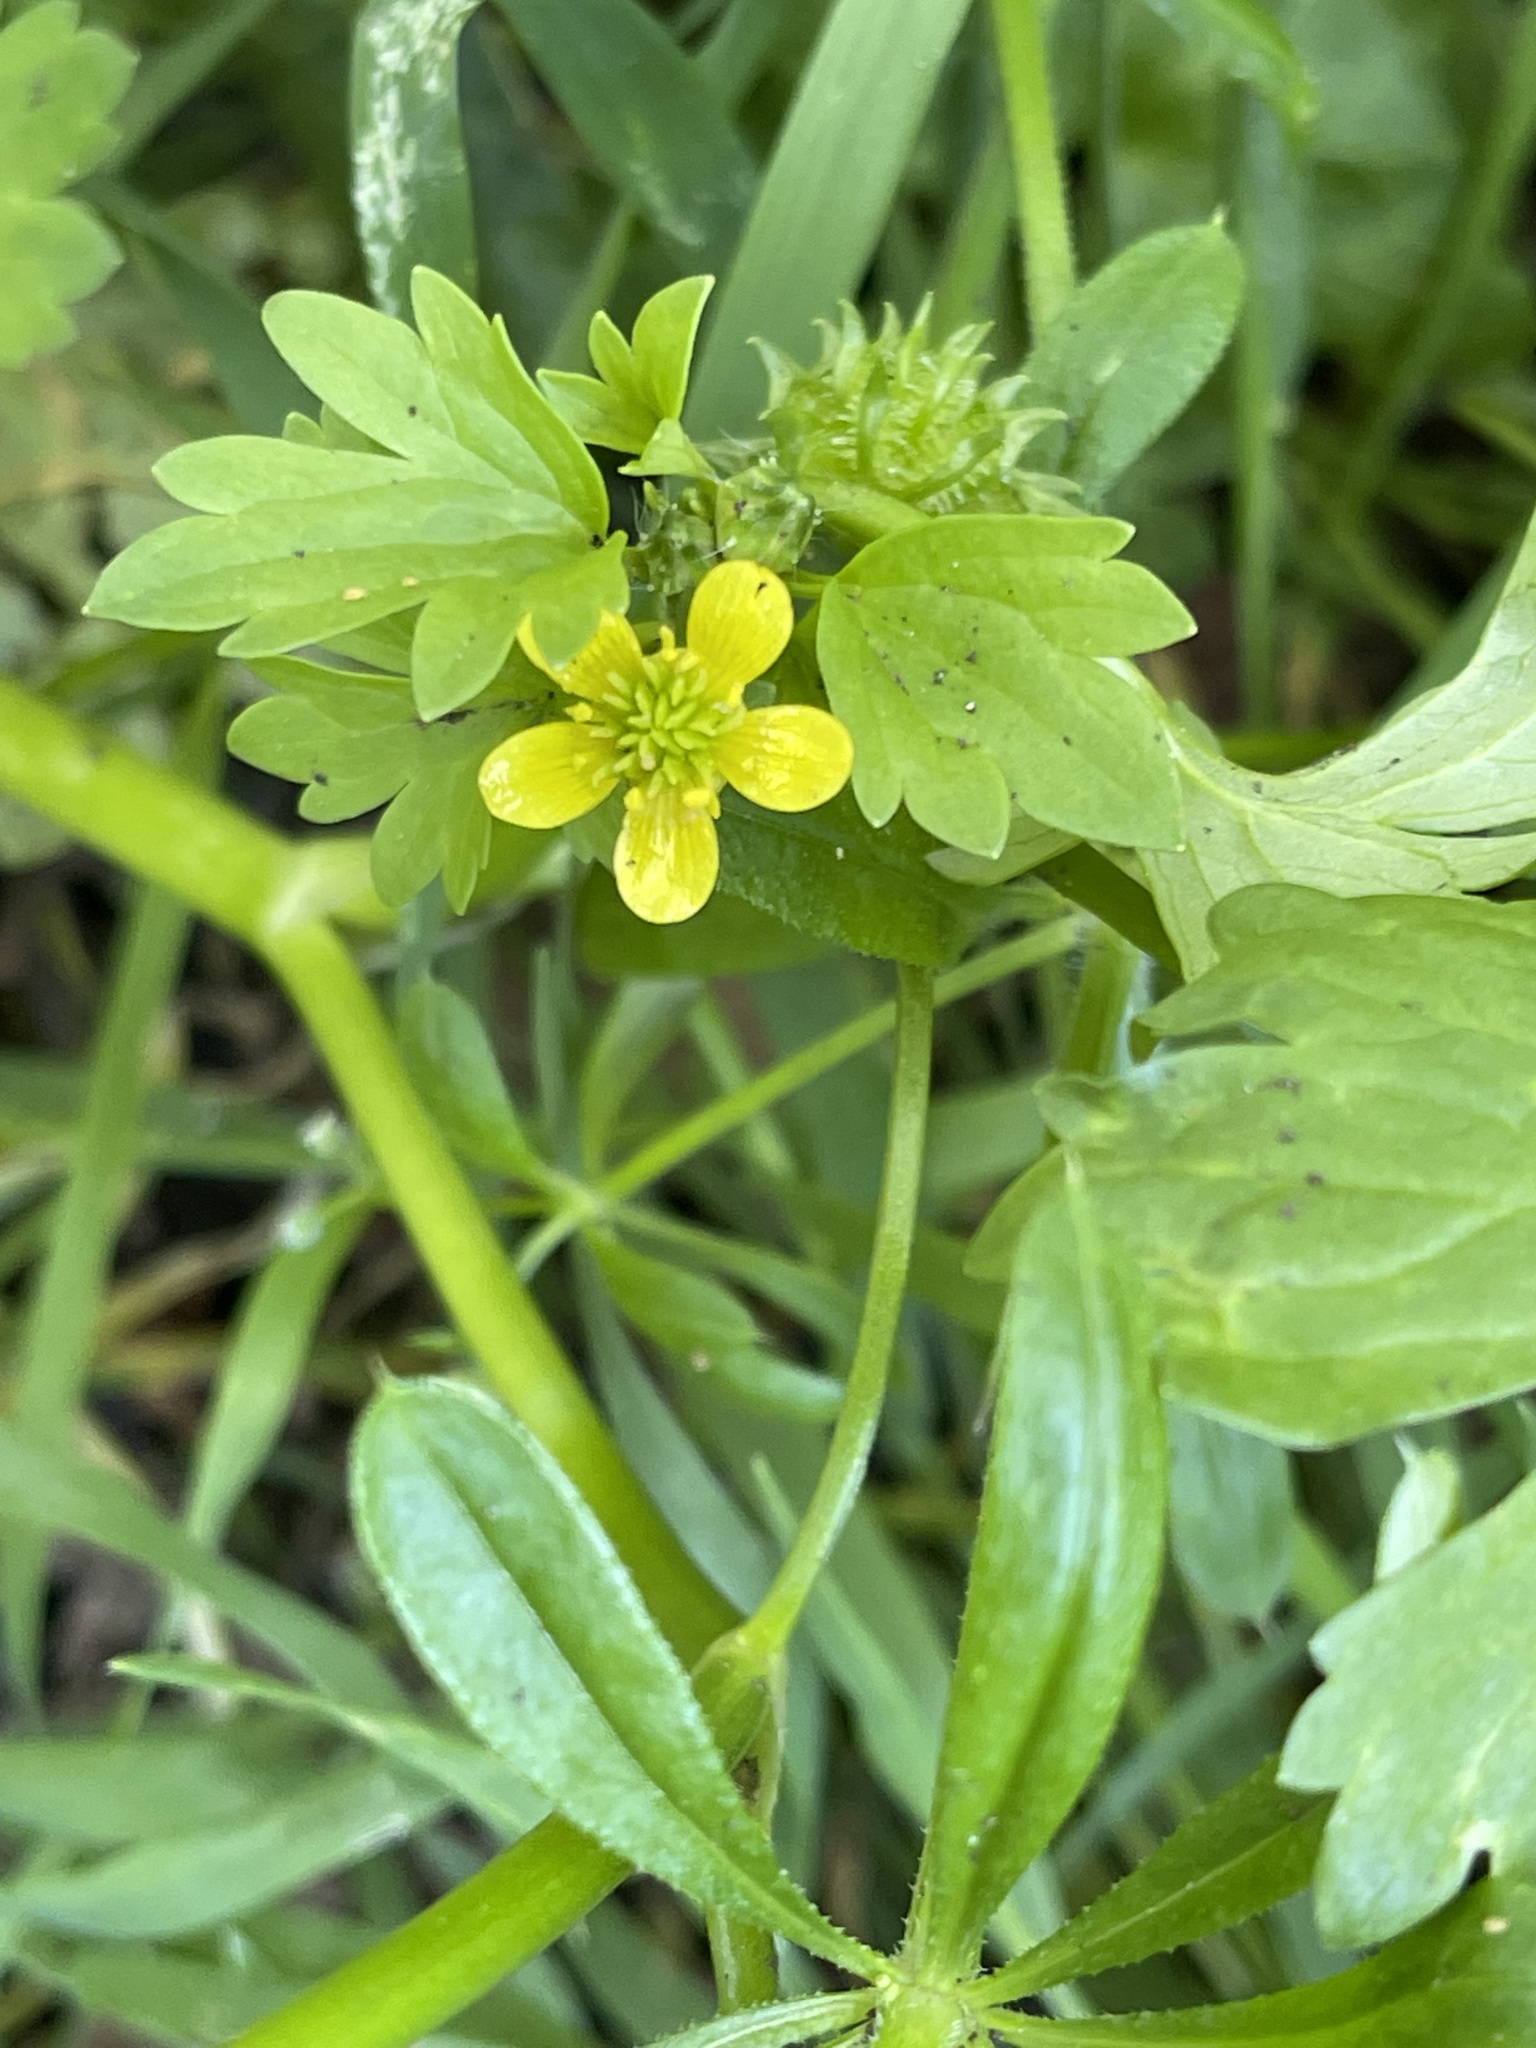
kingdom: Plantae
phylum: Tracheophyta
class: Magnoliopsida
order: Ranunculales
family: Ranunculaceae
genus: Ranunculus
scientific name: Ranunculus muricatus
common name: Rough-fruited buttercup
